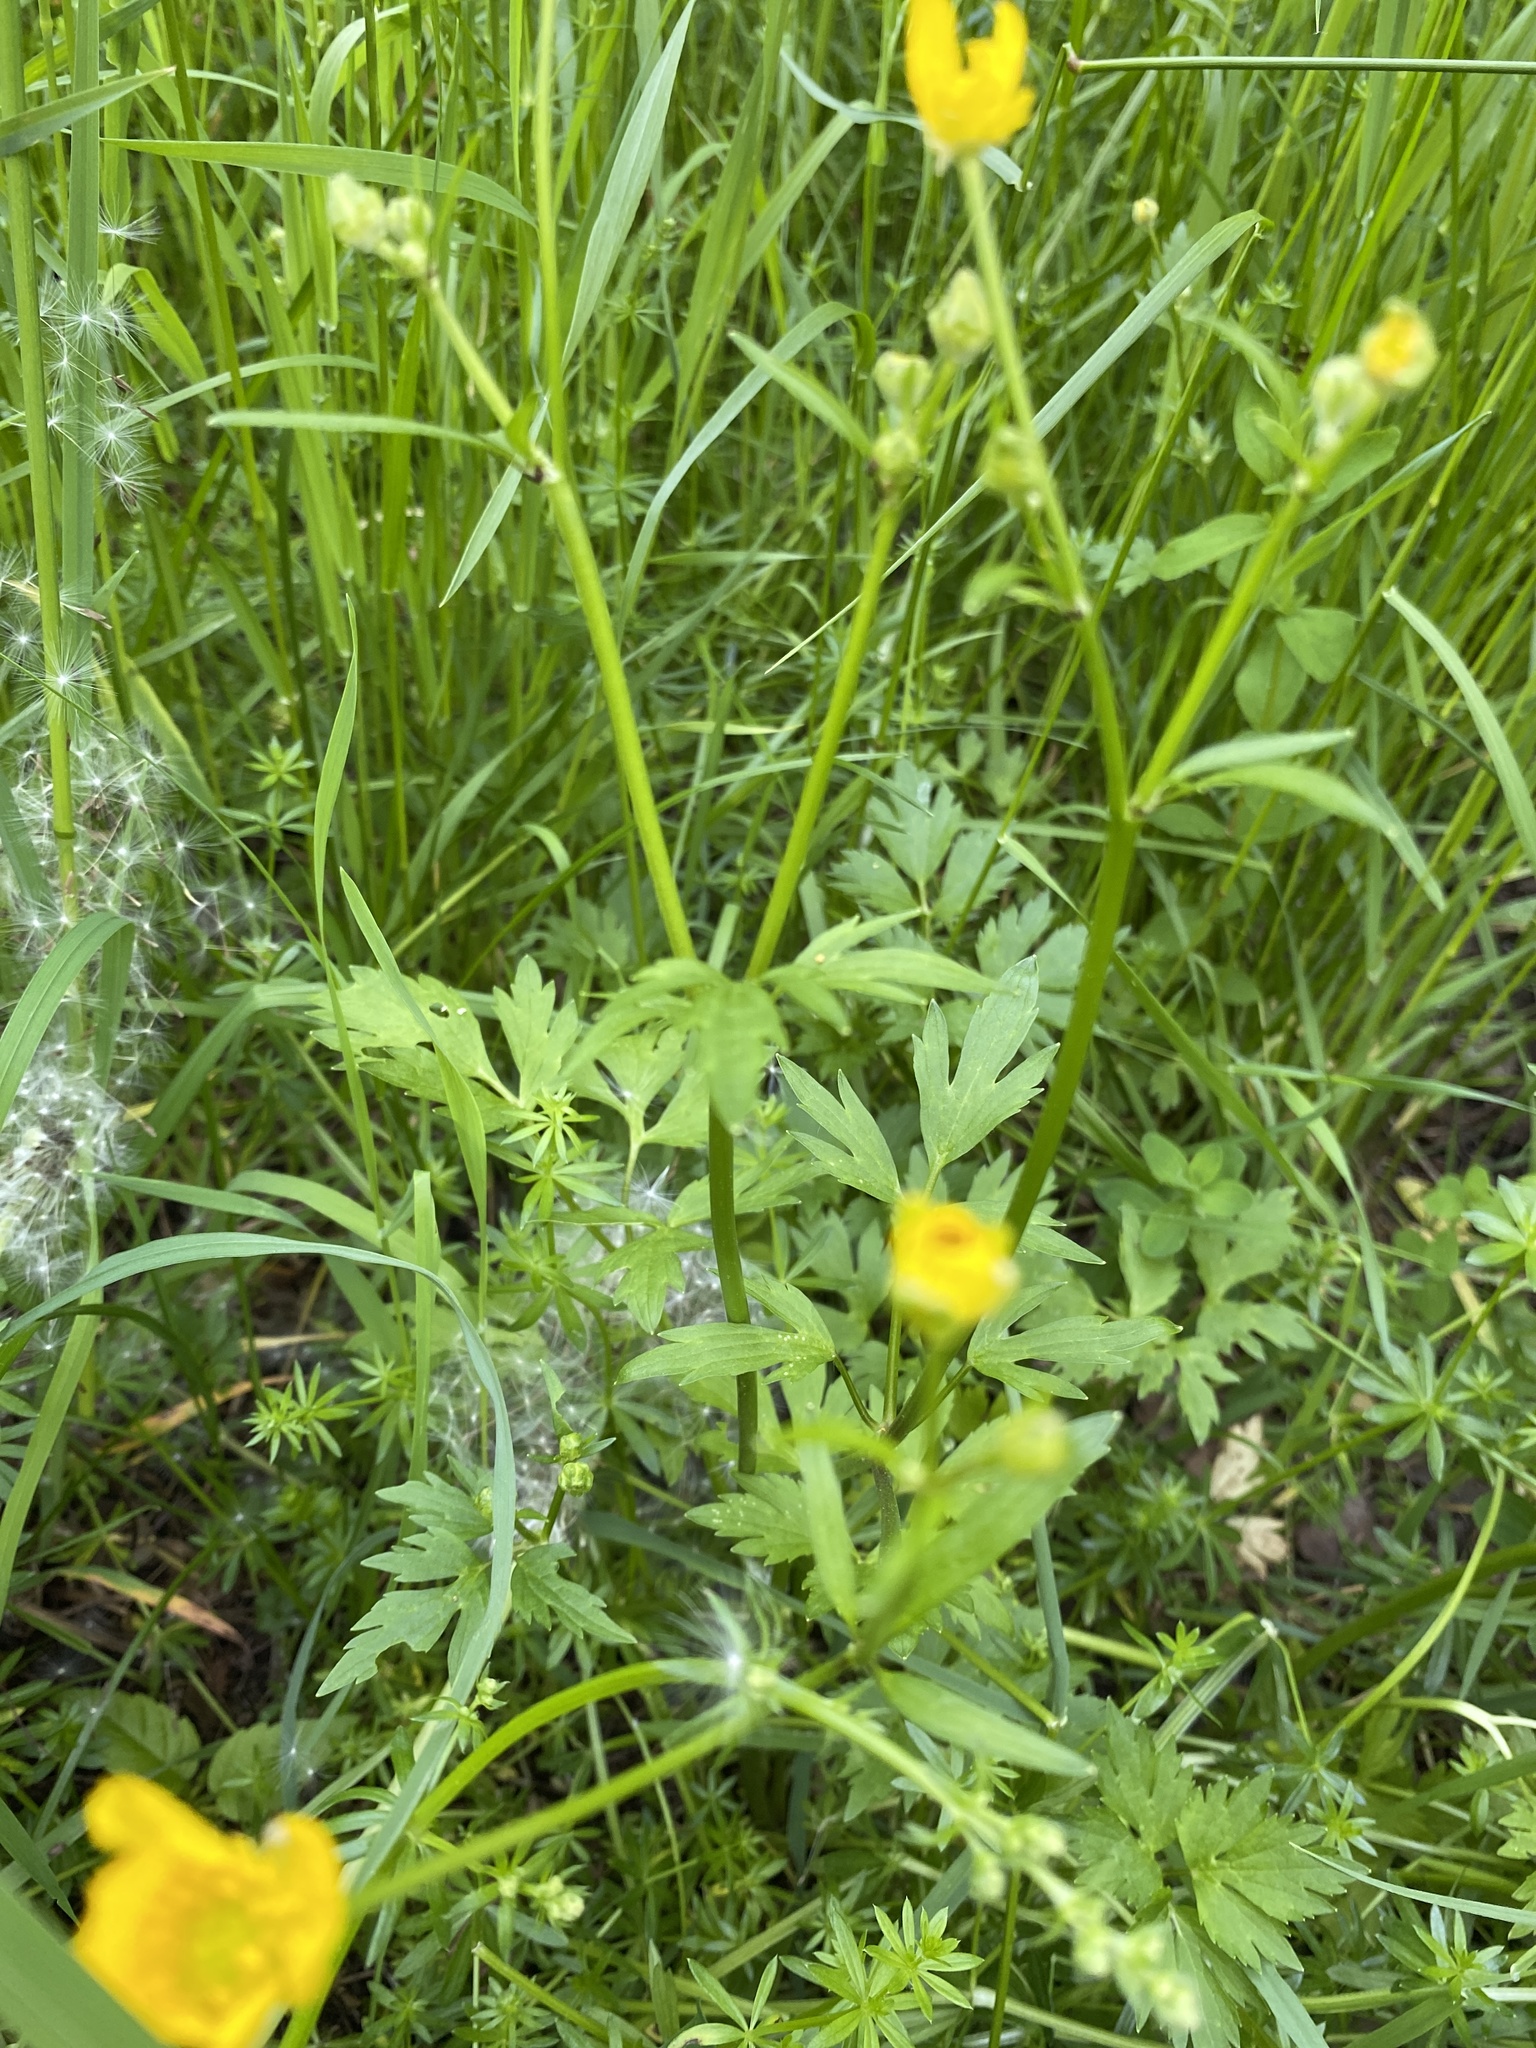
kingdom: Plantae
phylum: Tracheophyta
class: Magnoliopsida
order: Ranunculales
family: Ranunculaceae
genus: Ranunculus
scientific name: Ranunculus repens
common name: Creeping buttercup
